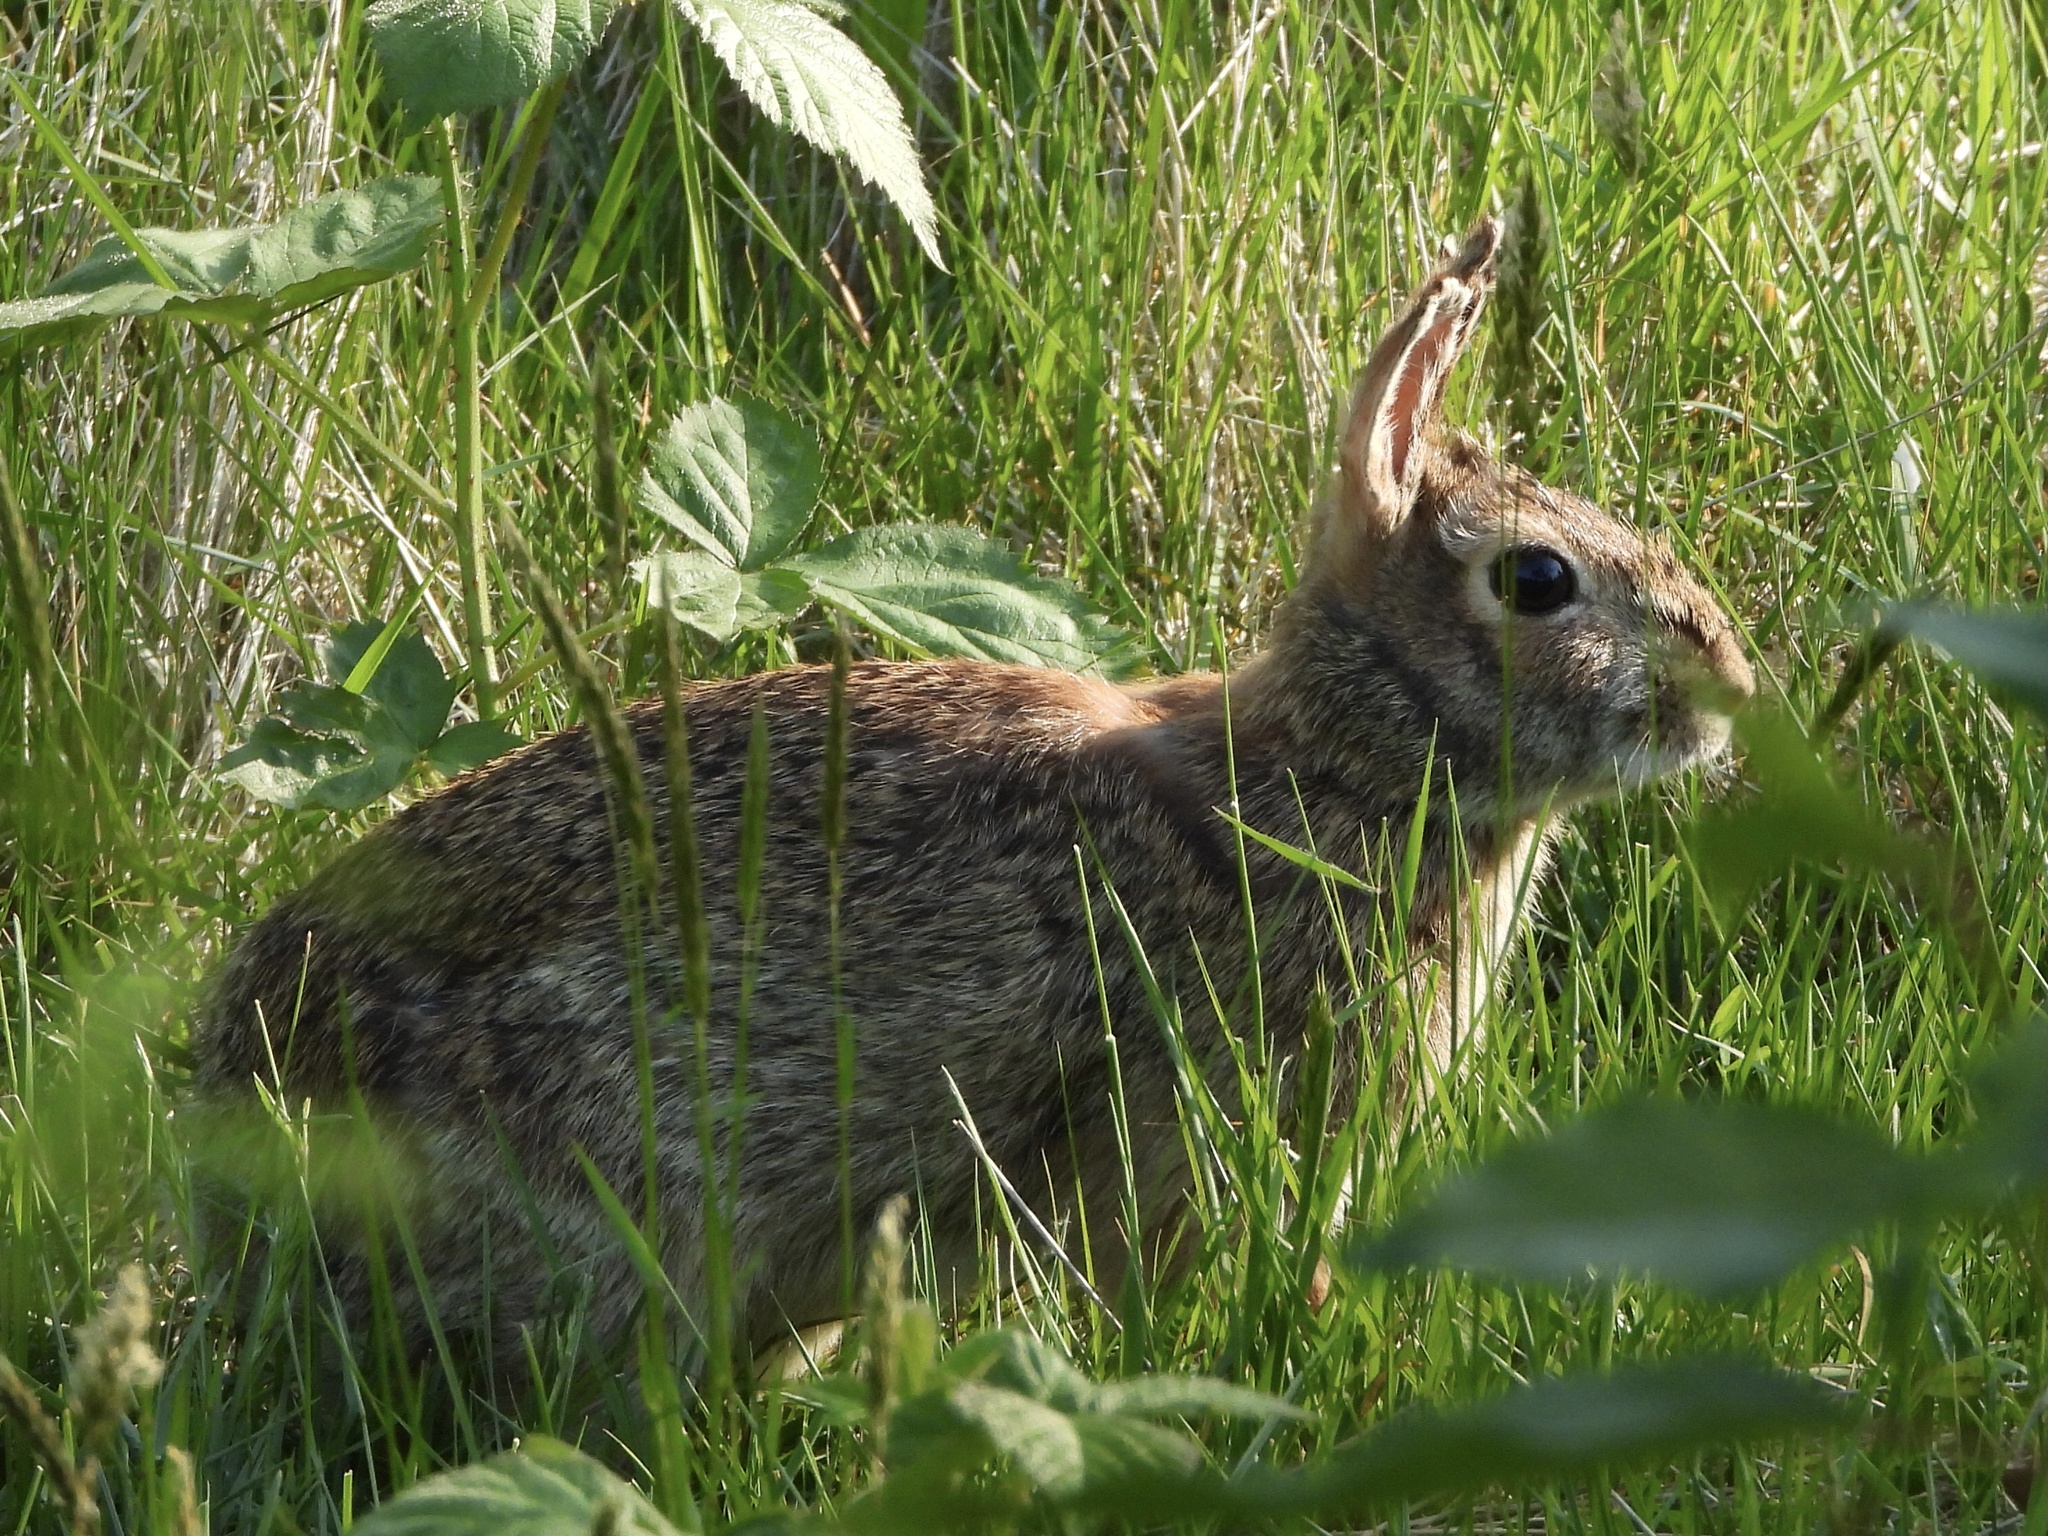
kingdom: Animalia
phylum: Chordata
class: Mammalia
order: Lagomorpha
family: Leporidae
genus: Sylvilagus
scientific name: Sylvilagus floridanus
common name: Eastern cottontail
